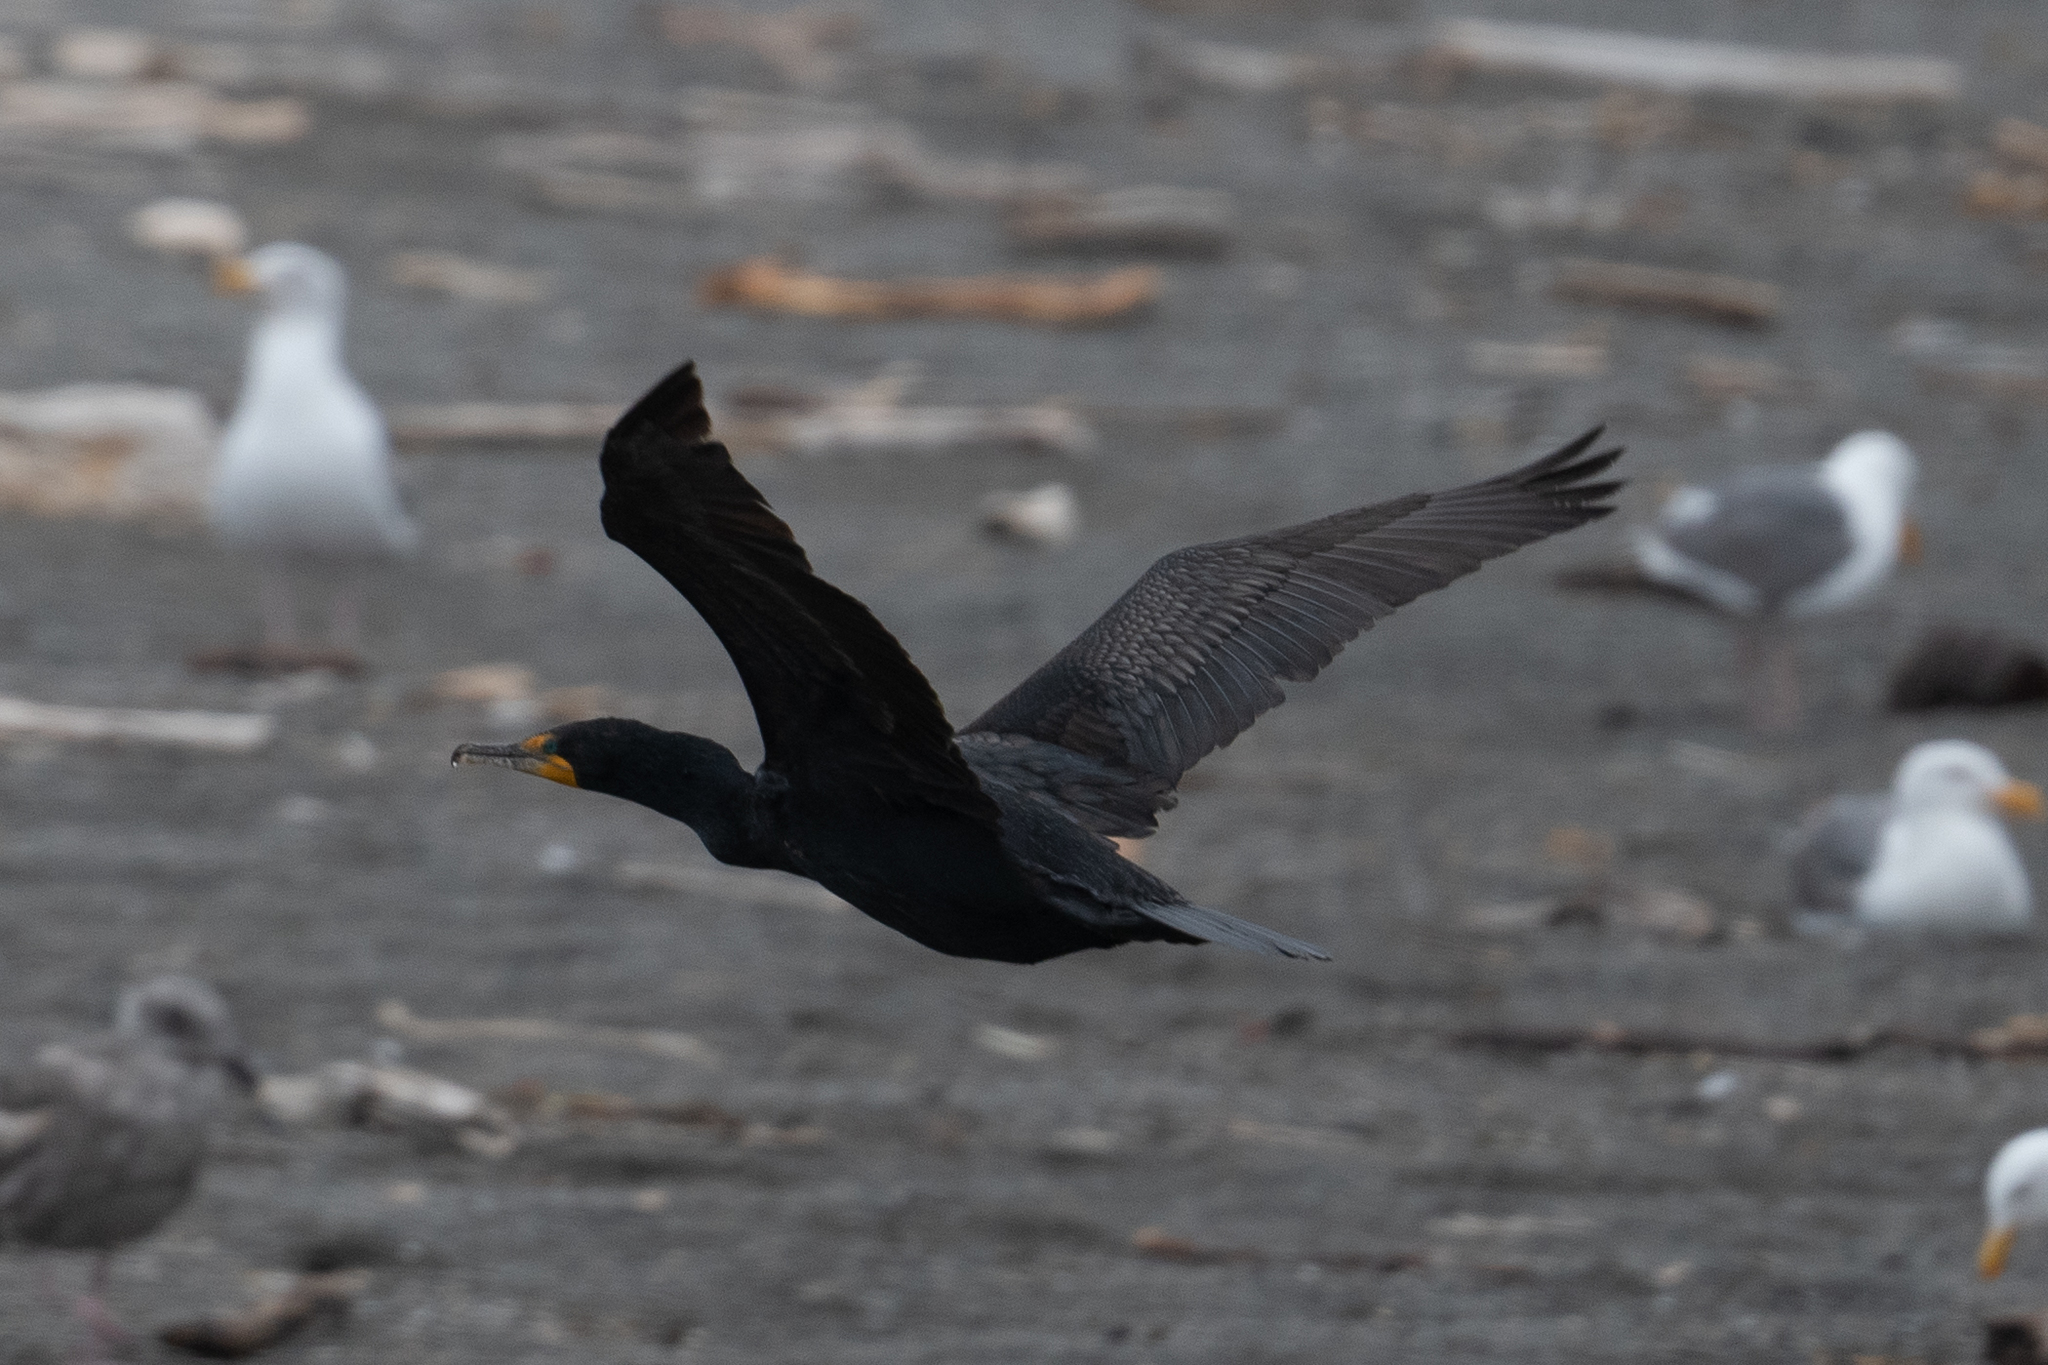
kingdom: Animalia
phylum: Chordata
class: Aves
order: Suliformes
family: Phalacrocoracidae
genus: Phalacrocorax
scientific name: Phalacrocorax auritus
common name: Double-crested cormorant
